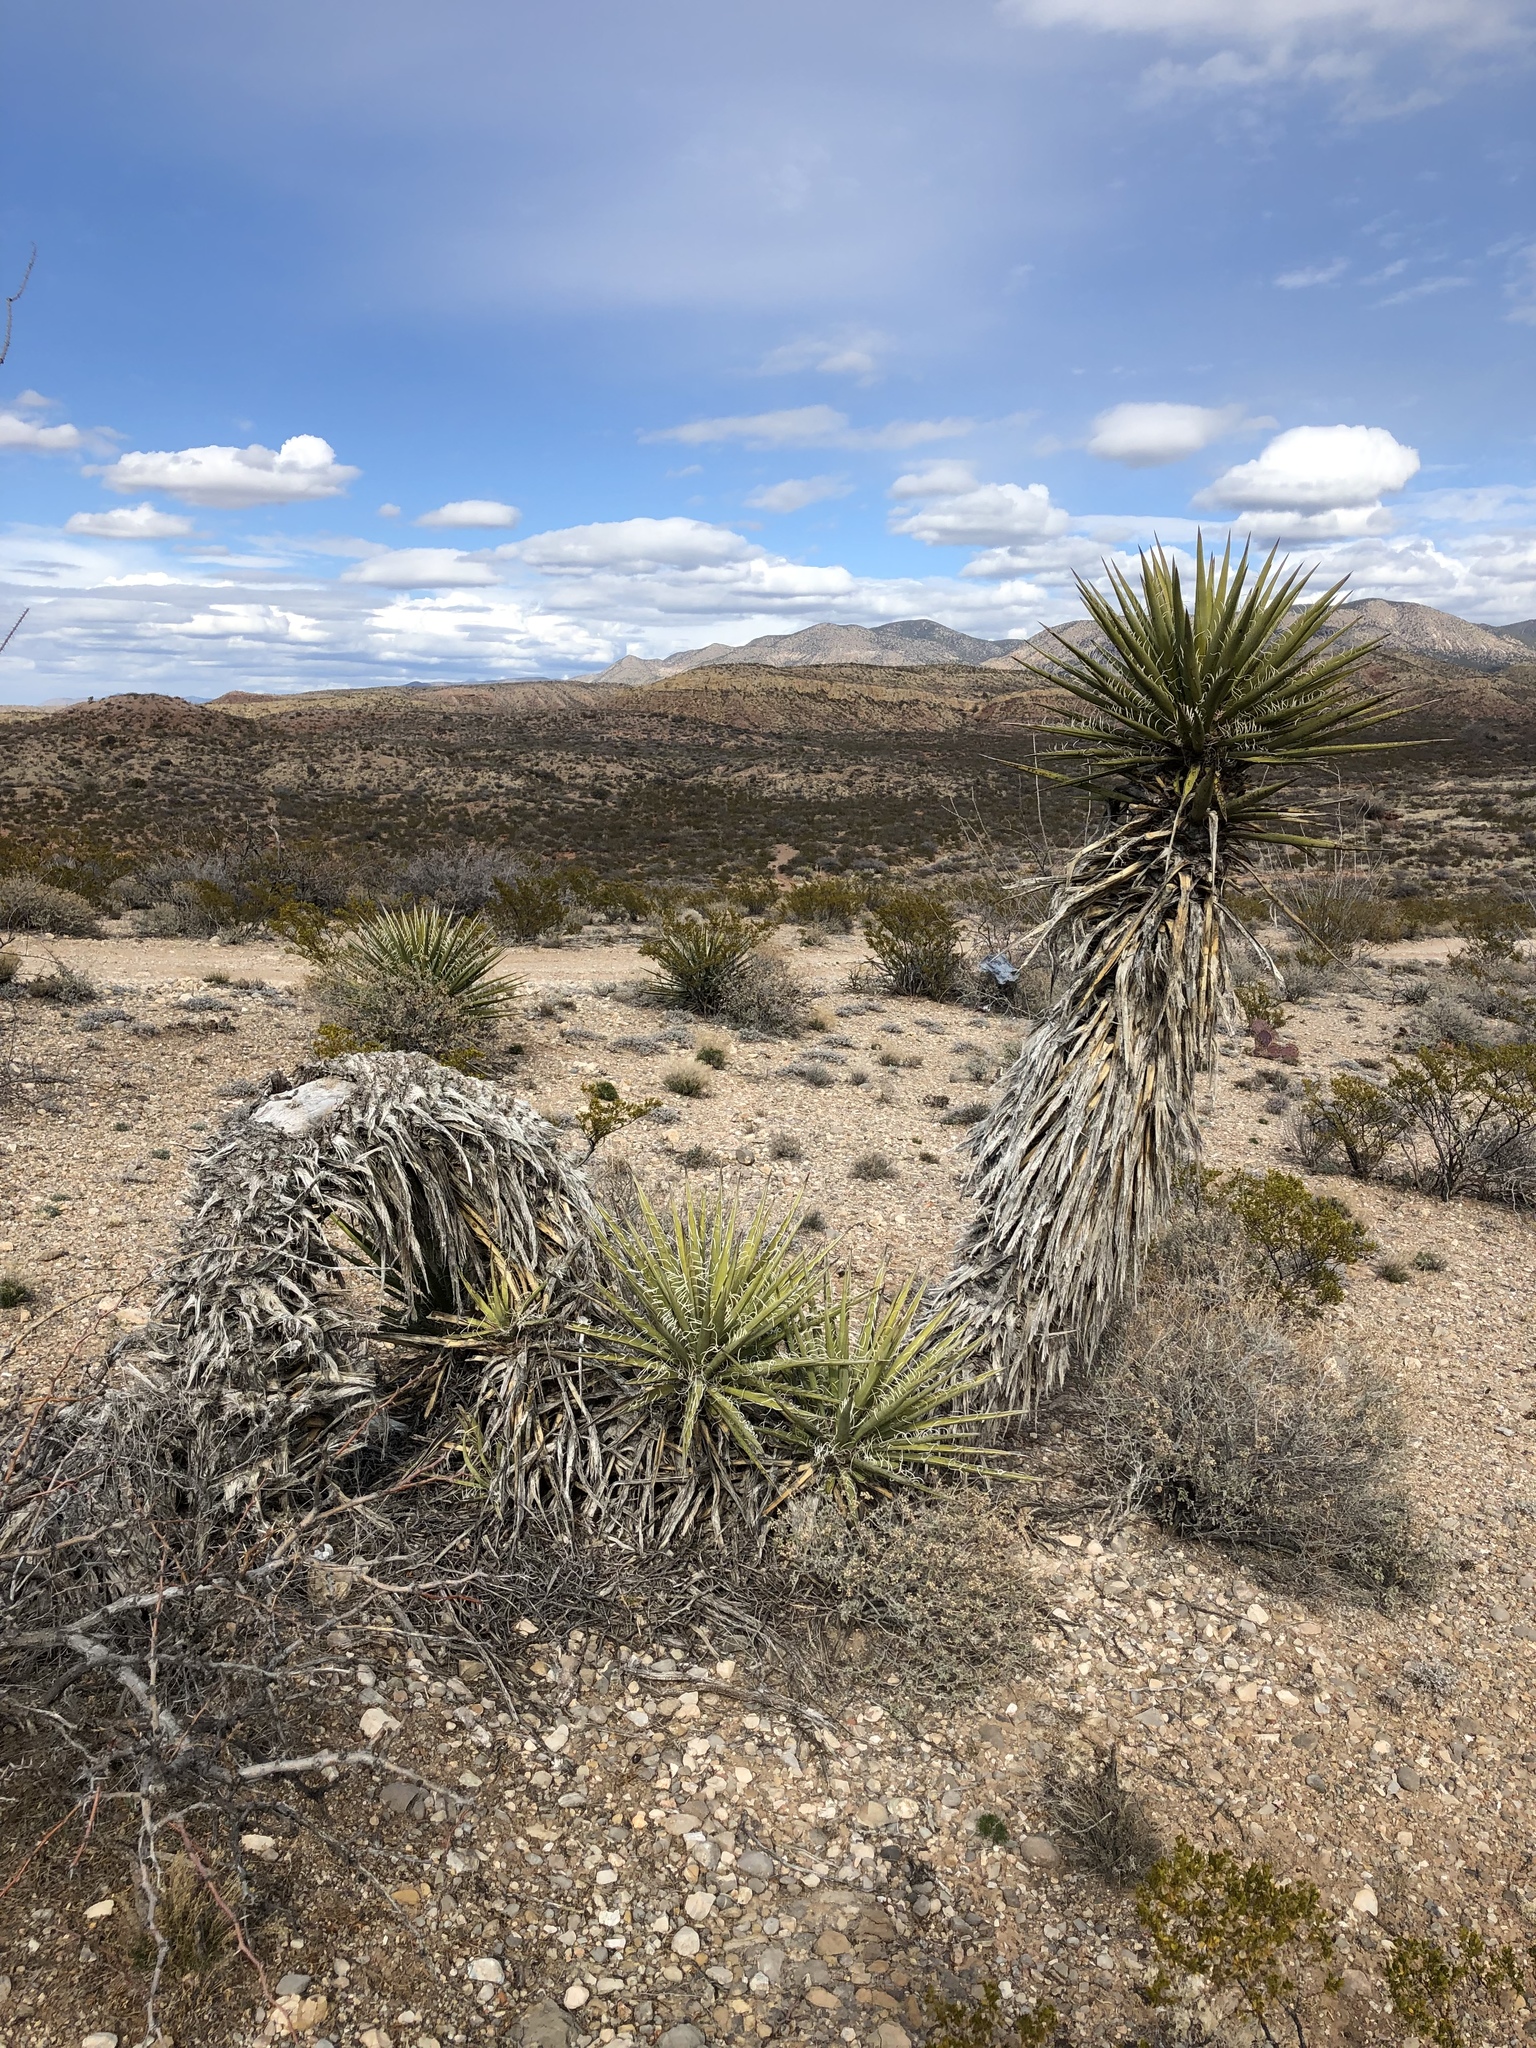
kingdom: Plantae
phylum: Tracheophyta
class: Liliopsida
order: Asparagales
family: Asparagaceae
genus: Yucca
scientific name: Yucca treculiana
